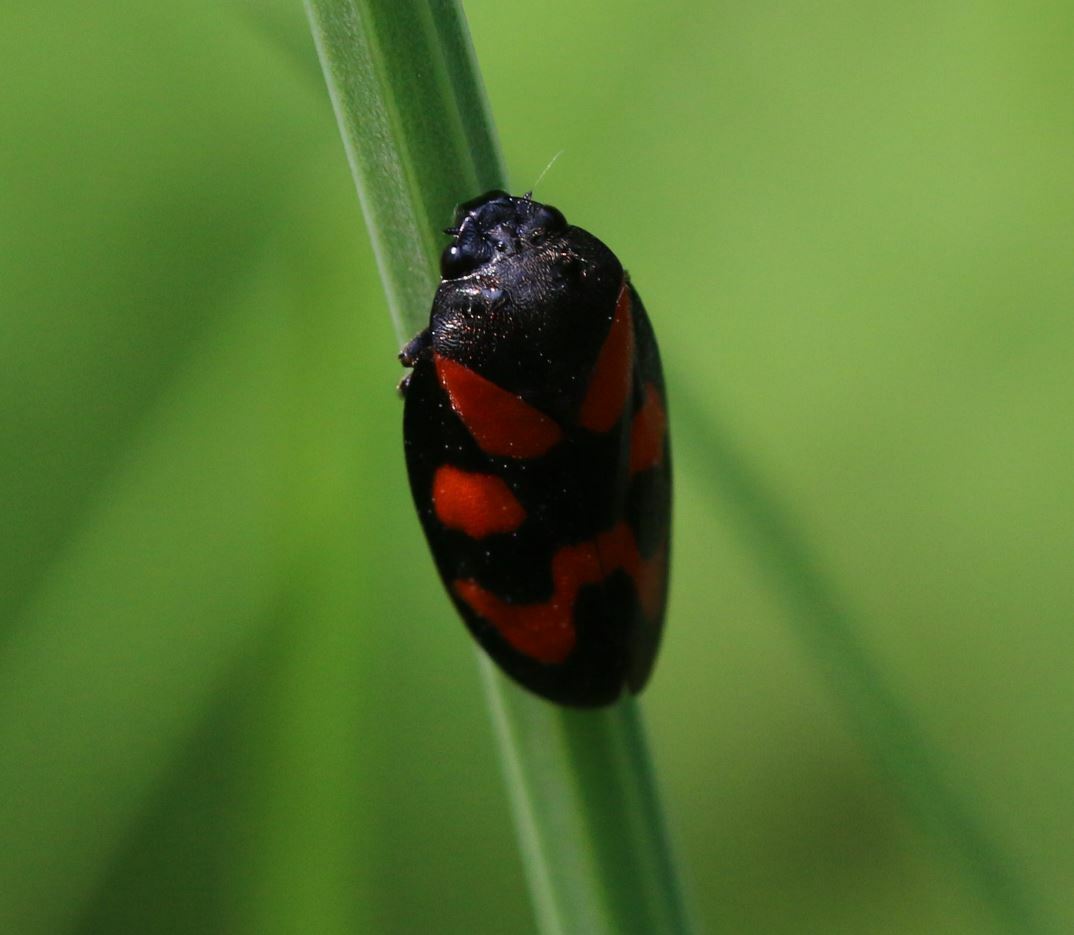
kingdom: Animalia
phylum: Arthropoda
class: Insecta
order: Hemiptera
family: Cercopidae
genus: Cercopis
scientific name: Cercopis vulnerata
